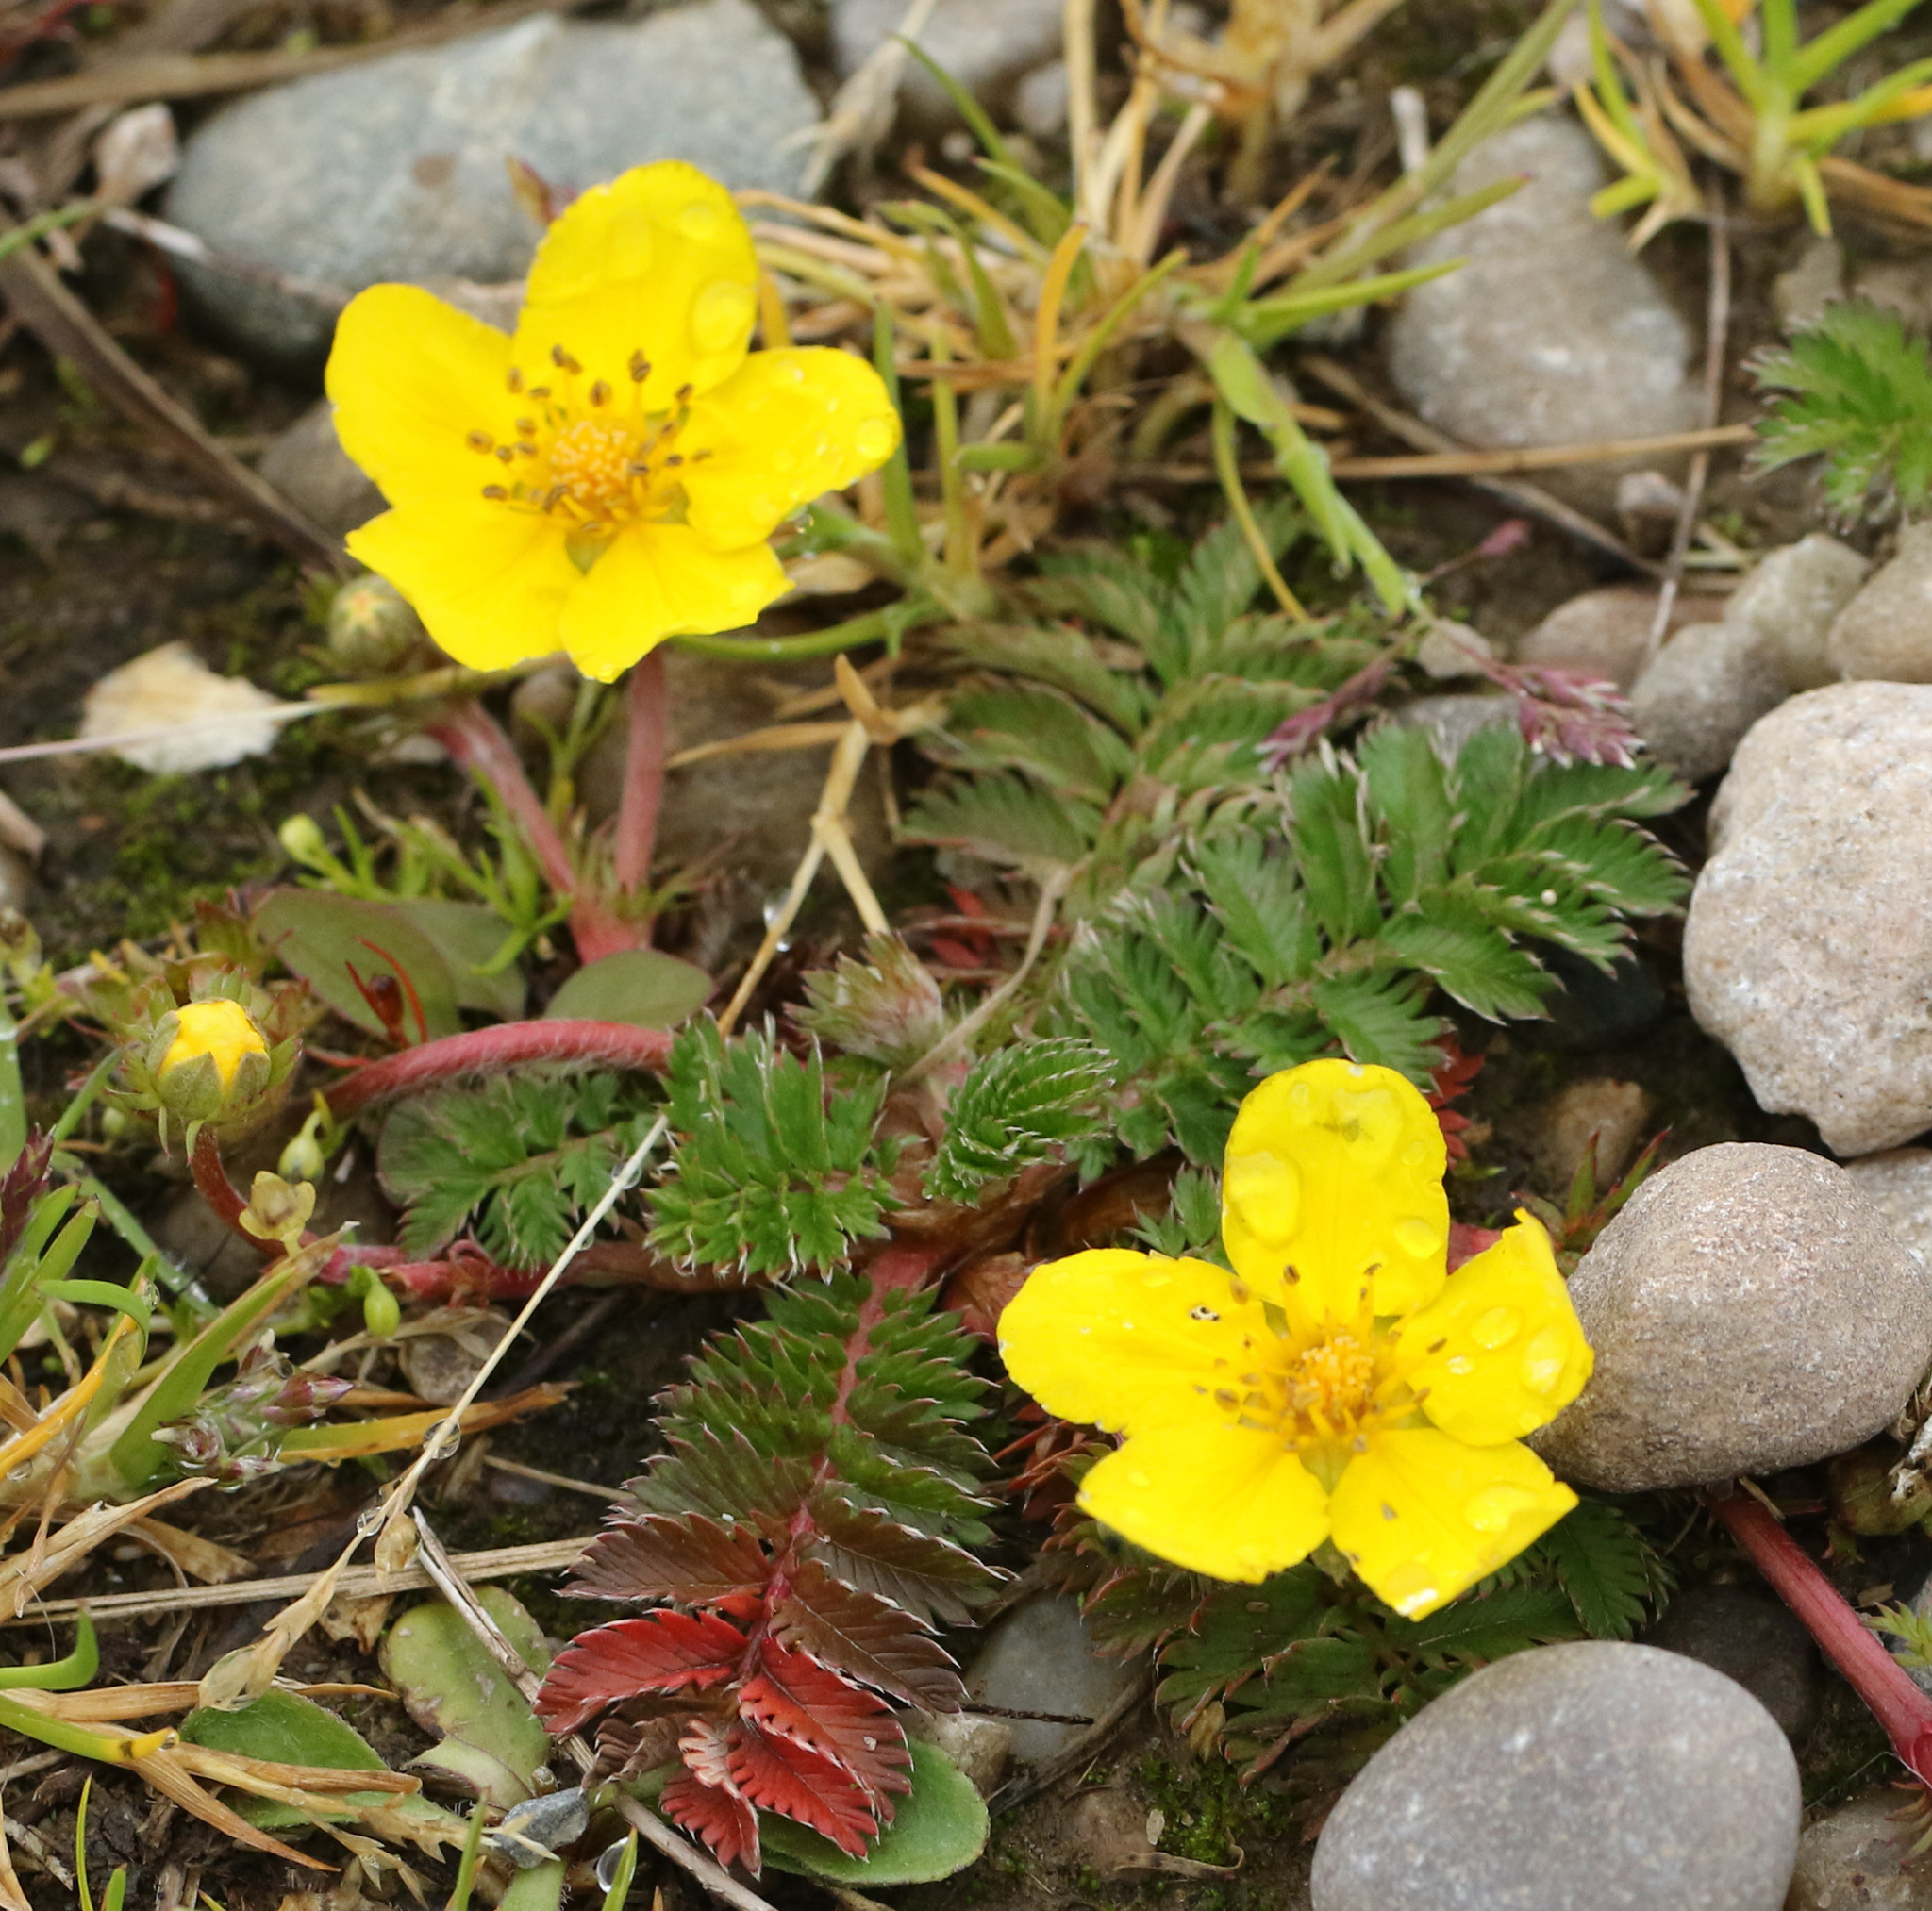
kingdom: Plantae
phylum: Tracheophyta
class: Magnoliopsida
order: Rosales
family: Rosaceae
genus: Argentina
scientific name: Argentina anserina
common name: Common silverweed
